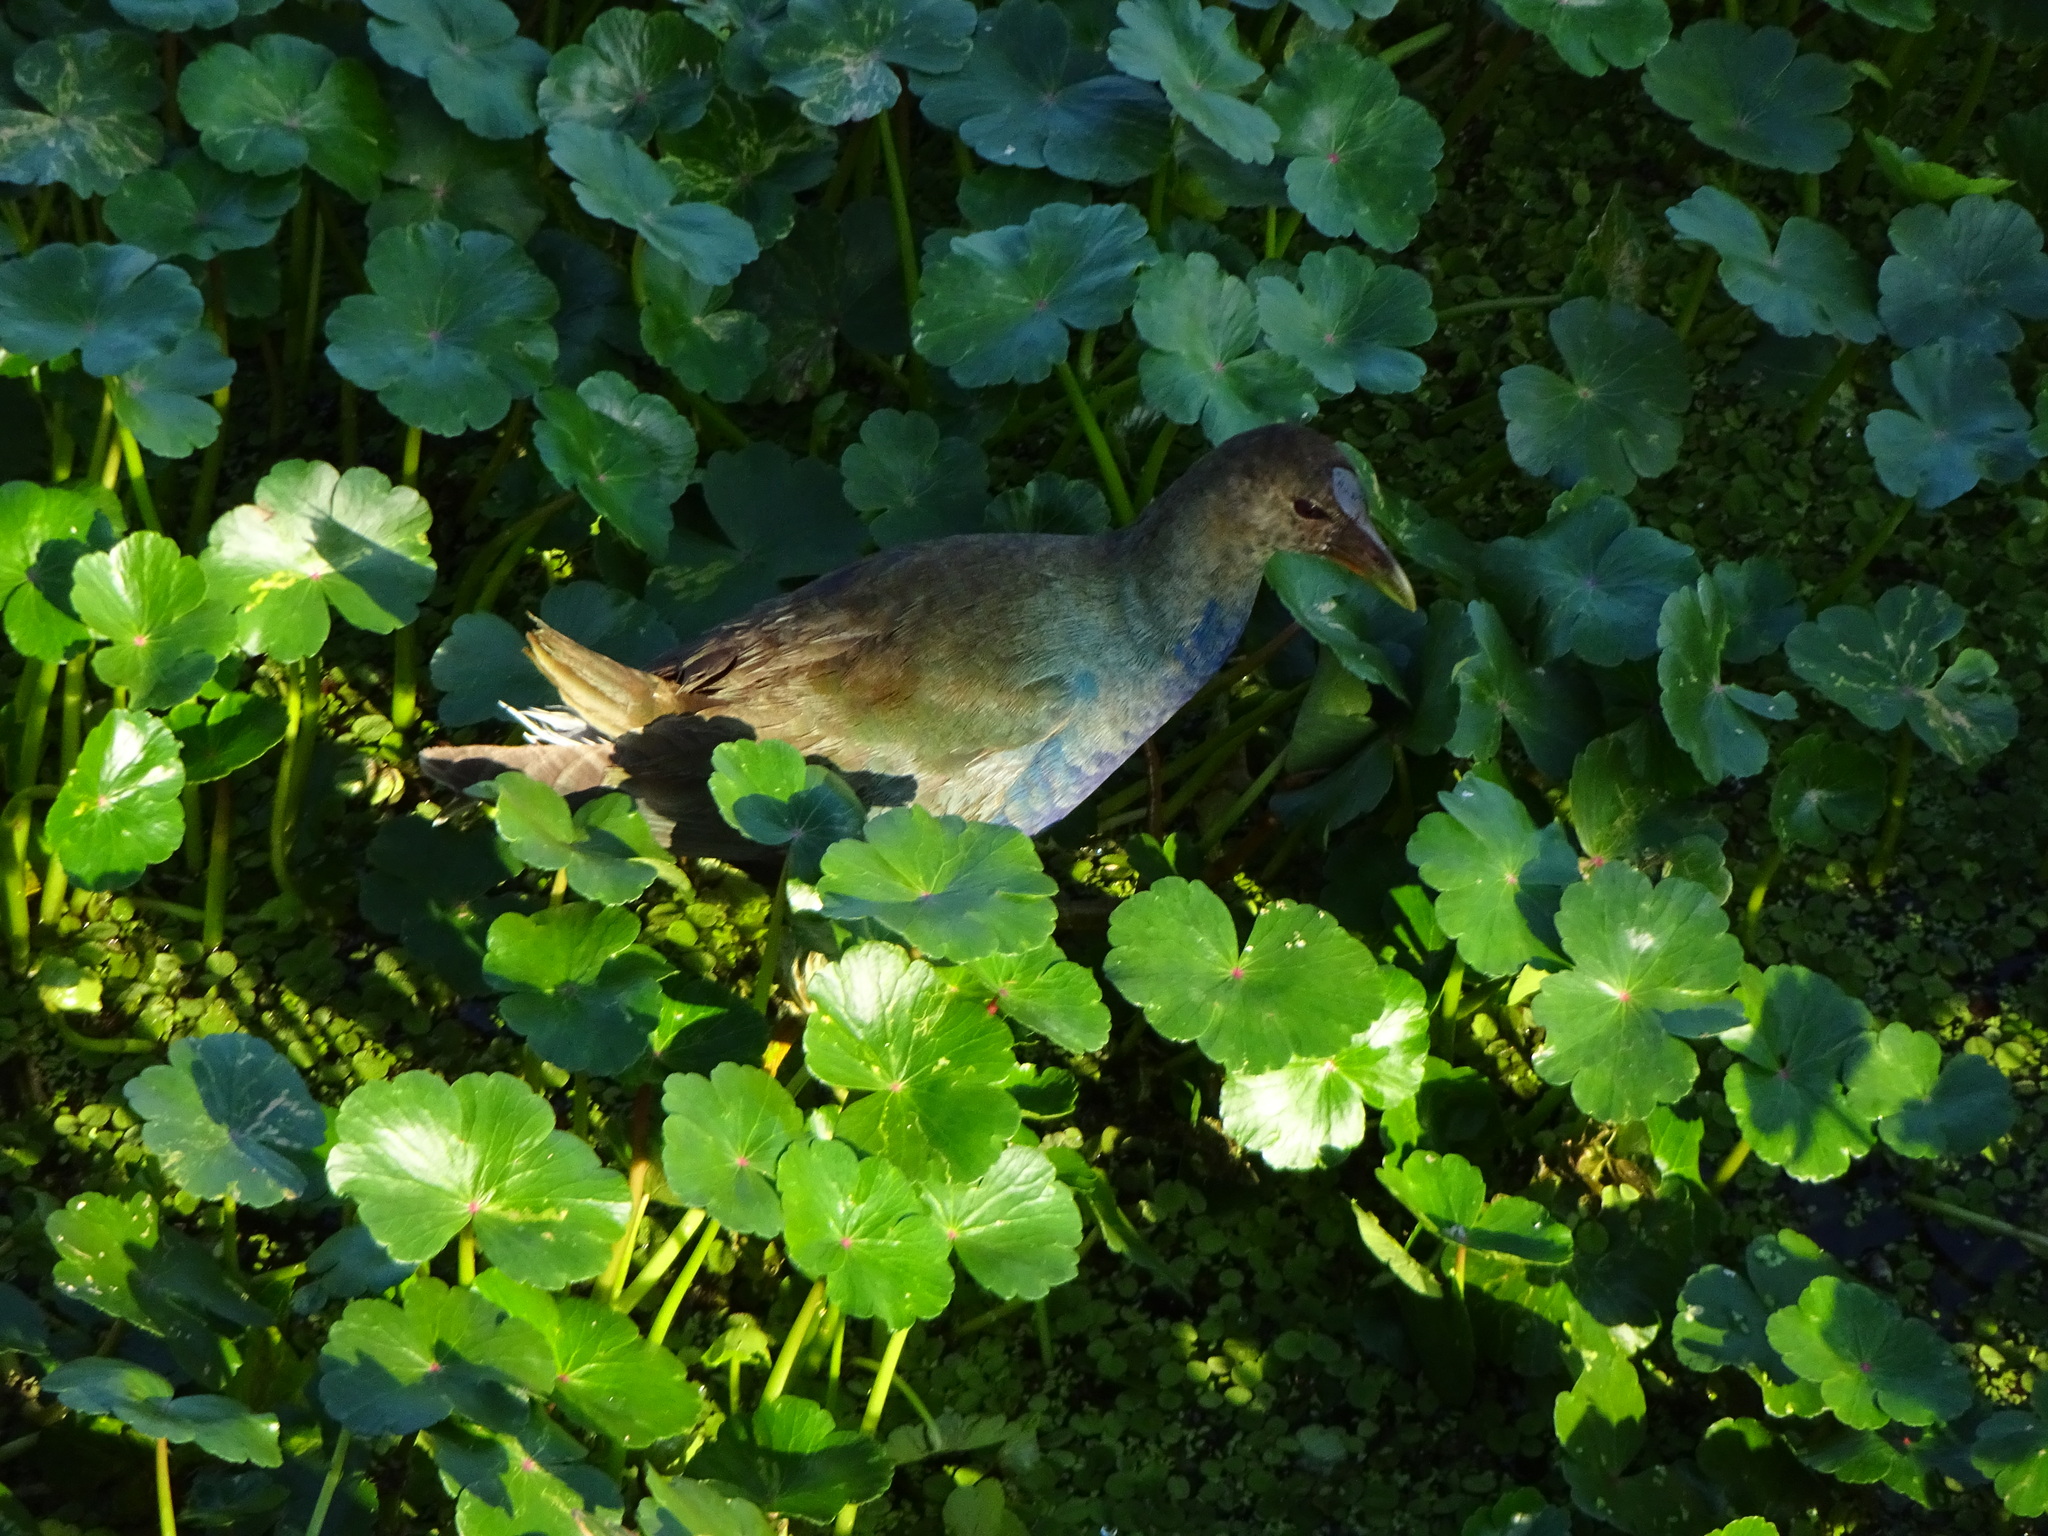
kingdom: Animalia
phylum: Chordata
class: Aves
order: Gruiformes
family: Rallidae
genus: Porphyrio
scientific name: Porphyrio martinica
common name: Purple gallinule
